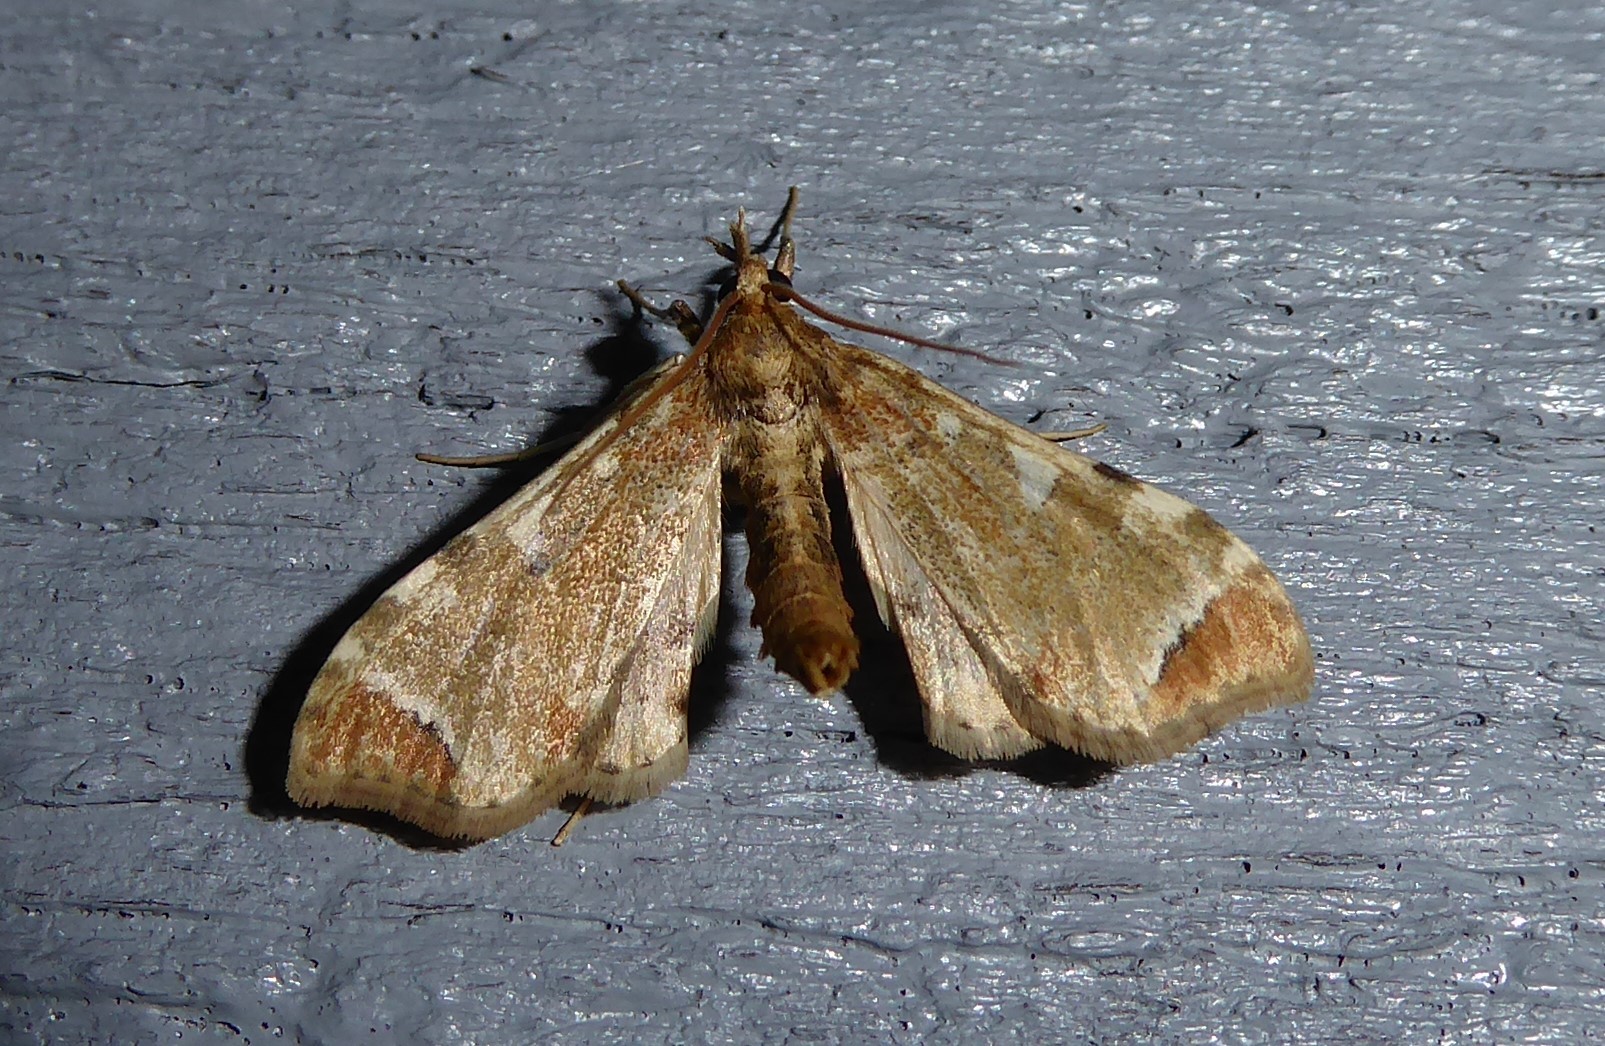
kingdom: Animalia
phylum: Arthropoda
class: Insecta
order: Lepidoptera
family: Crambidae
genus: Sceliodes
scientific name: Sceliodes cordalis
